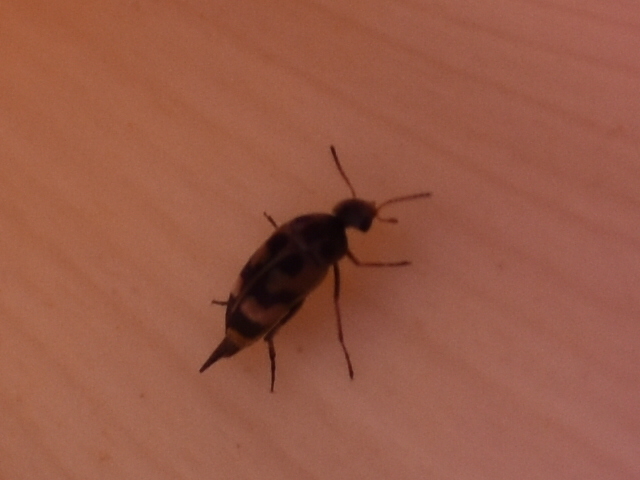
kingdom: Animalia
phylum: Arthropoda
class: Insecta
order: Coleoptera
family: Mordellidae
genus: Falsomordellistena
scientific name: Falsomordellistena pubescens
